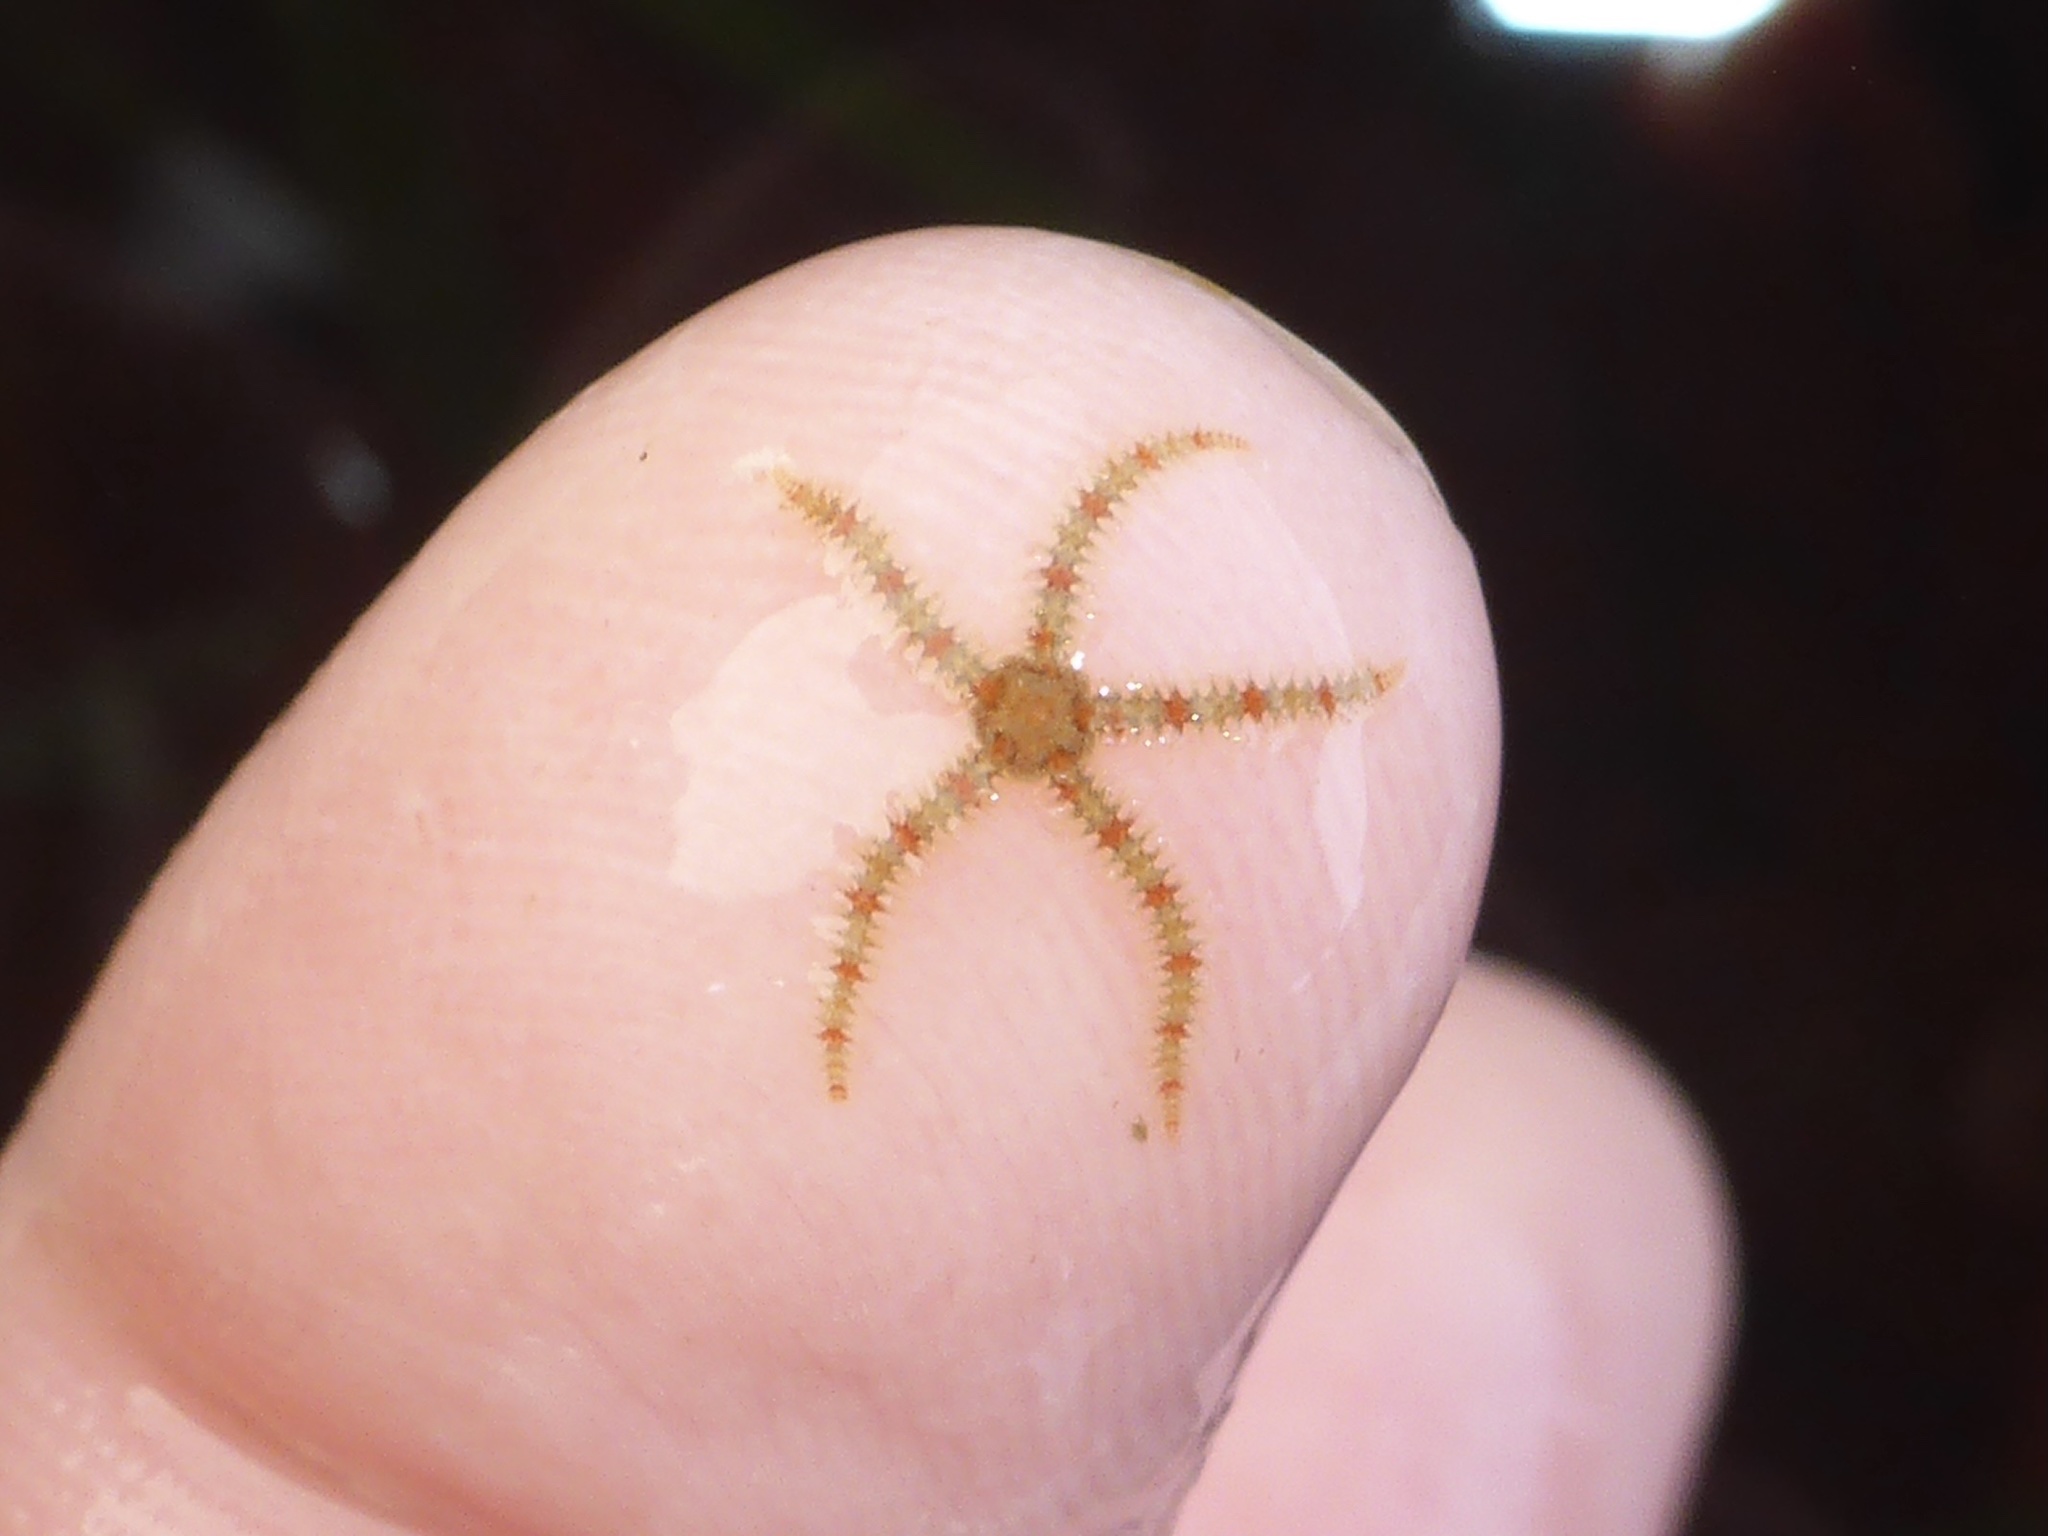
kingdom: Animalia
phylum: Echinodermata
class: Ophiuroidea
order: Amphilepidida
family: Ophiotrichidae
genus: Ophiothrix
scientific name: Ophiothrix spiculata
